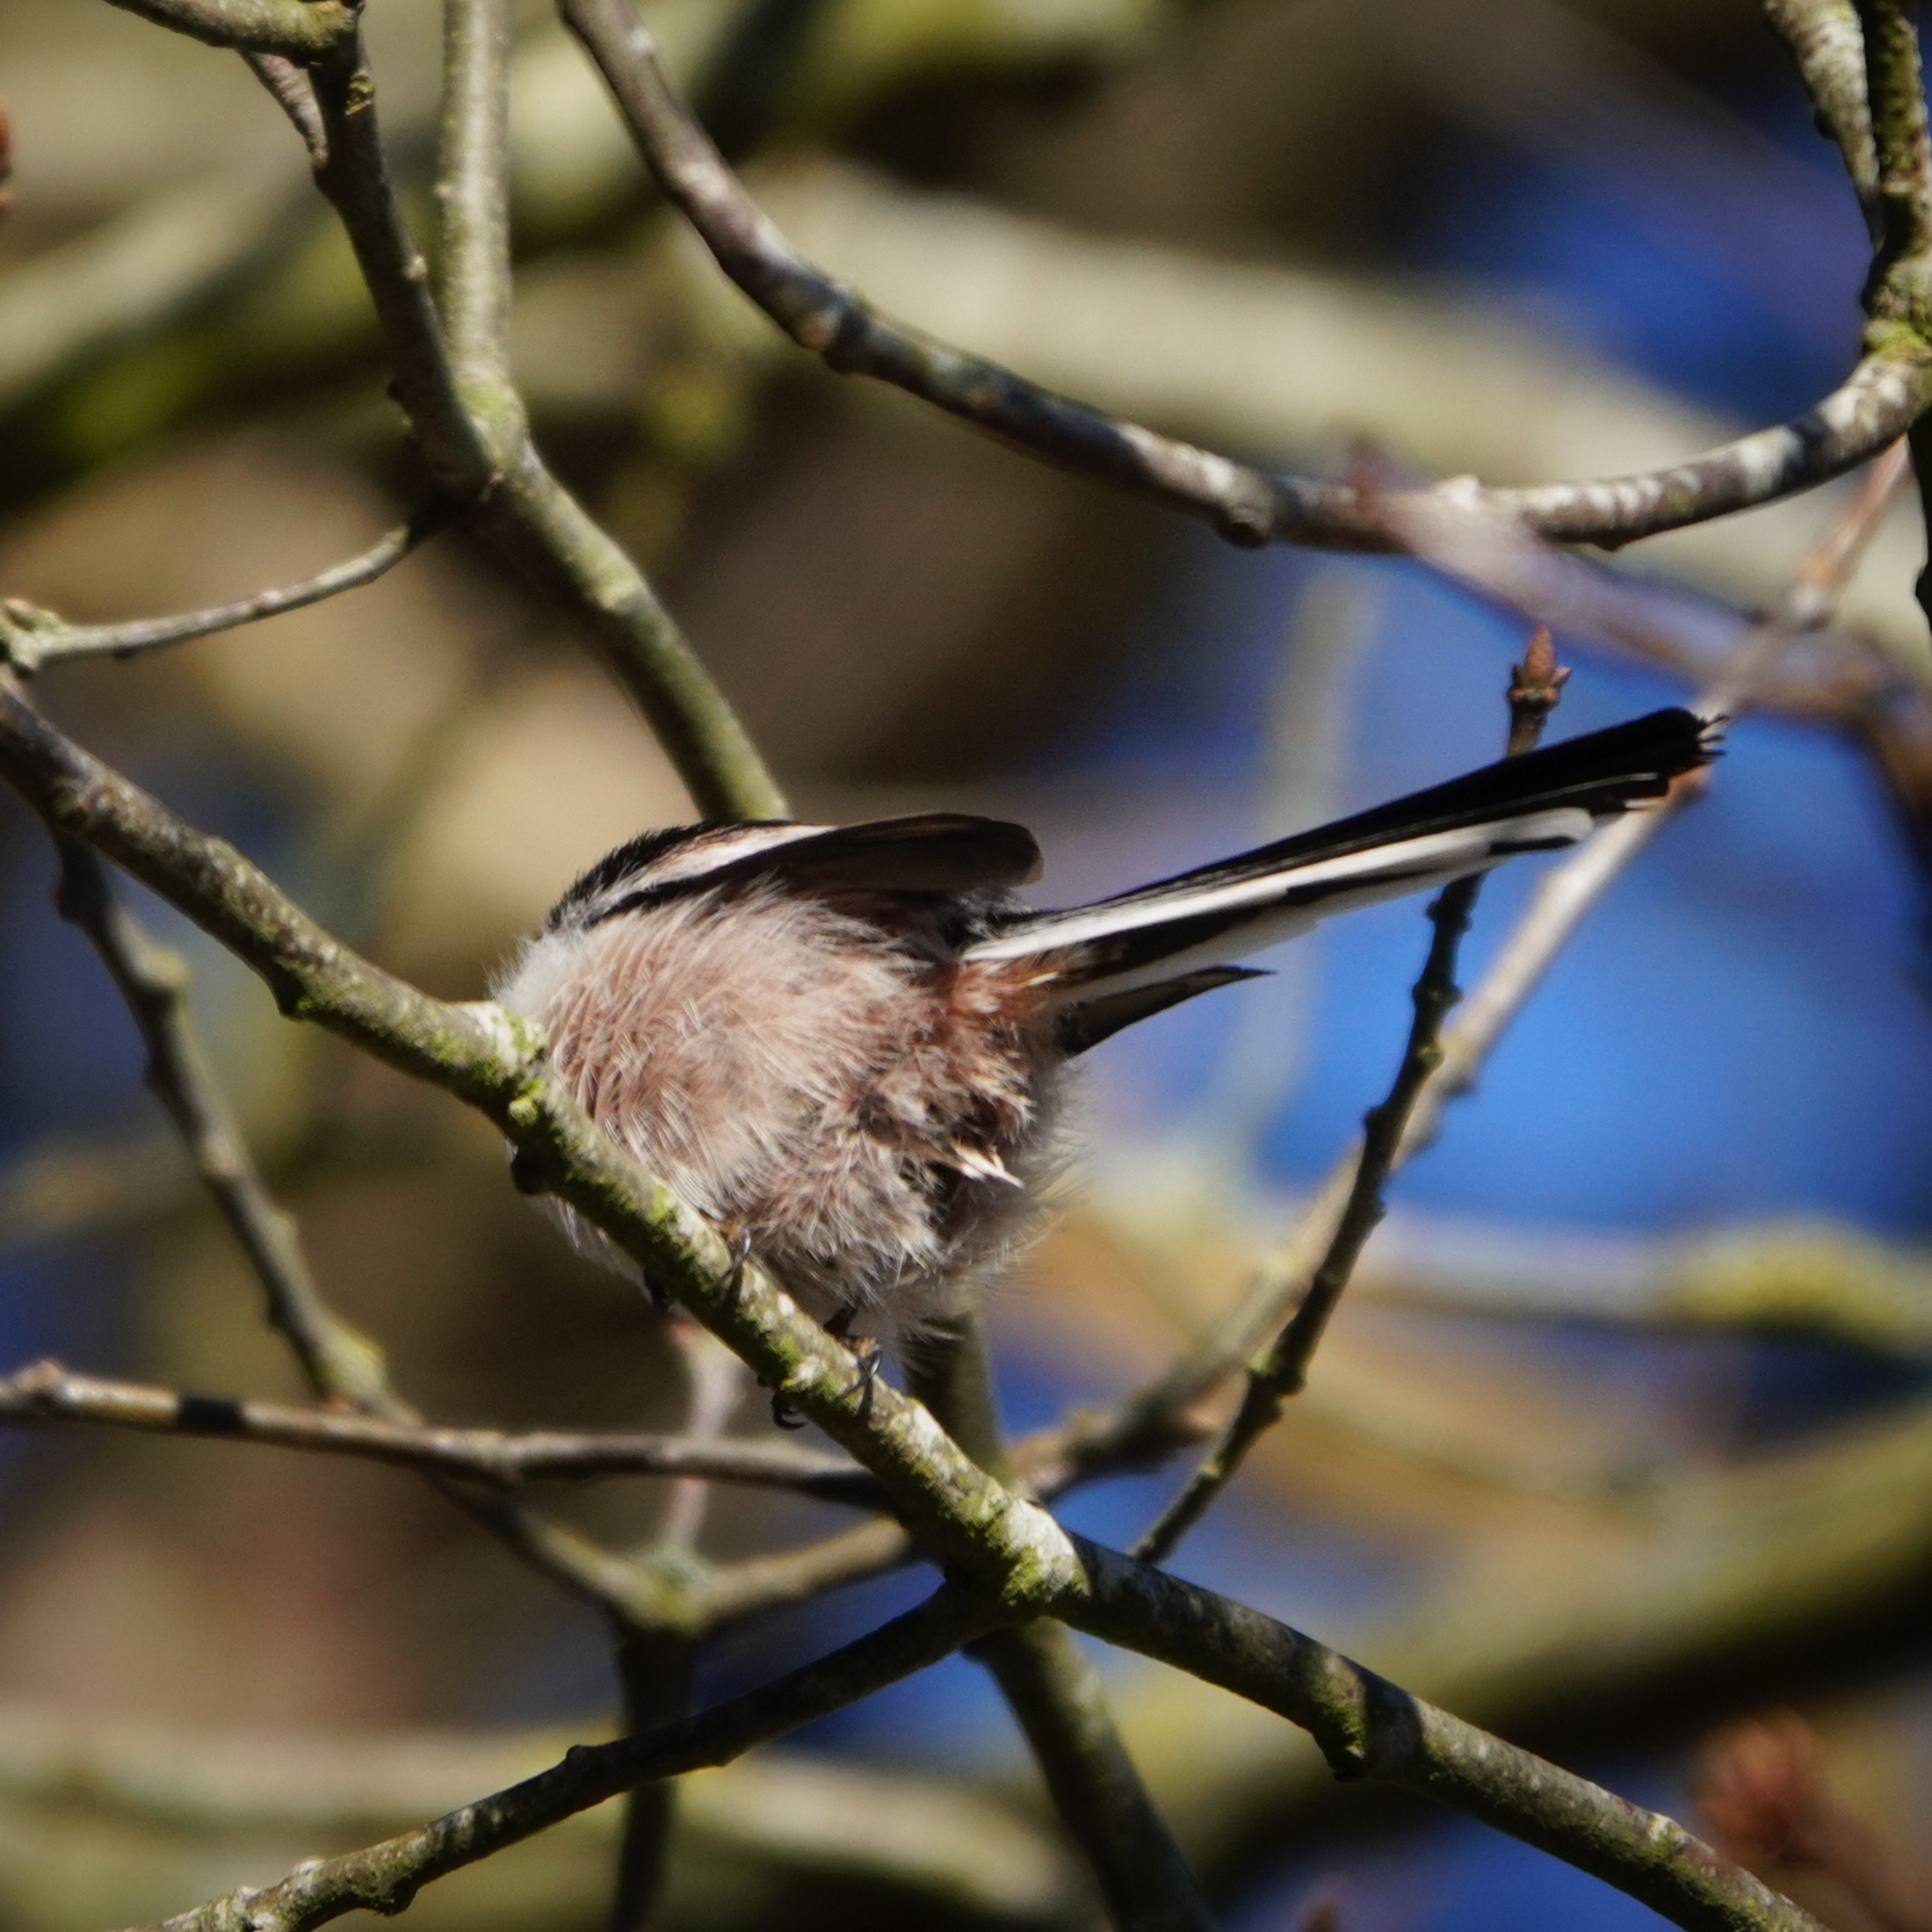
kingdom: Animalia
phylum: Chordata
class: Aves
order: Passeriformes
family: Aegithalidae
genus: Aegithalos
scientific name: Aegithalos caudatus
